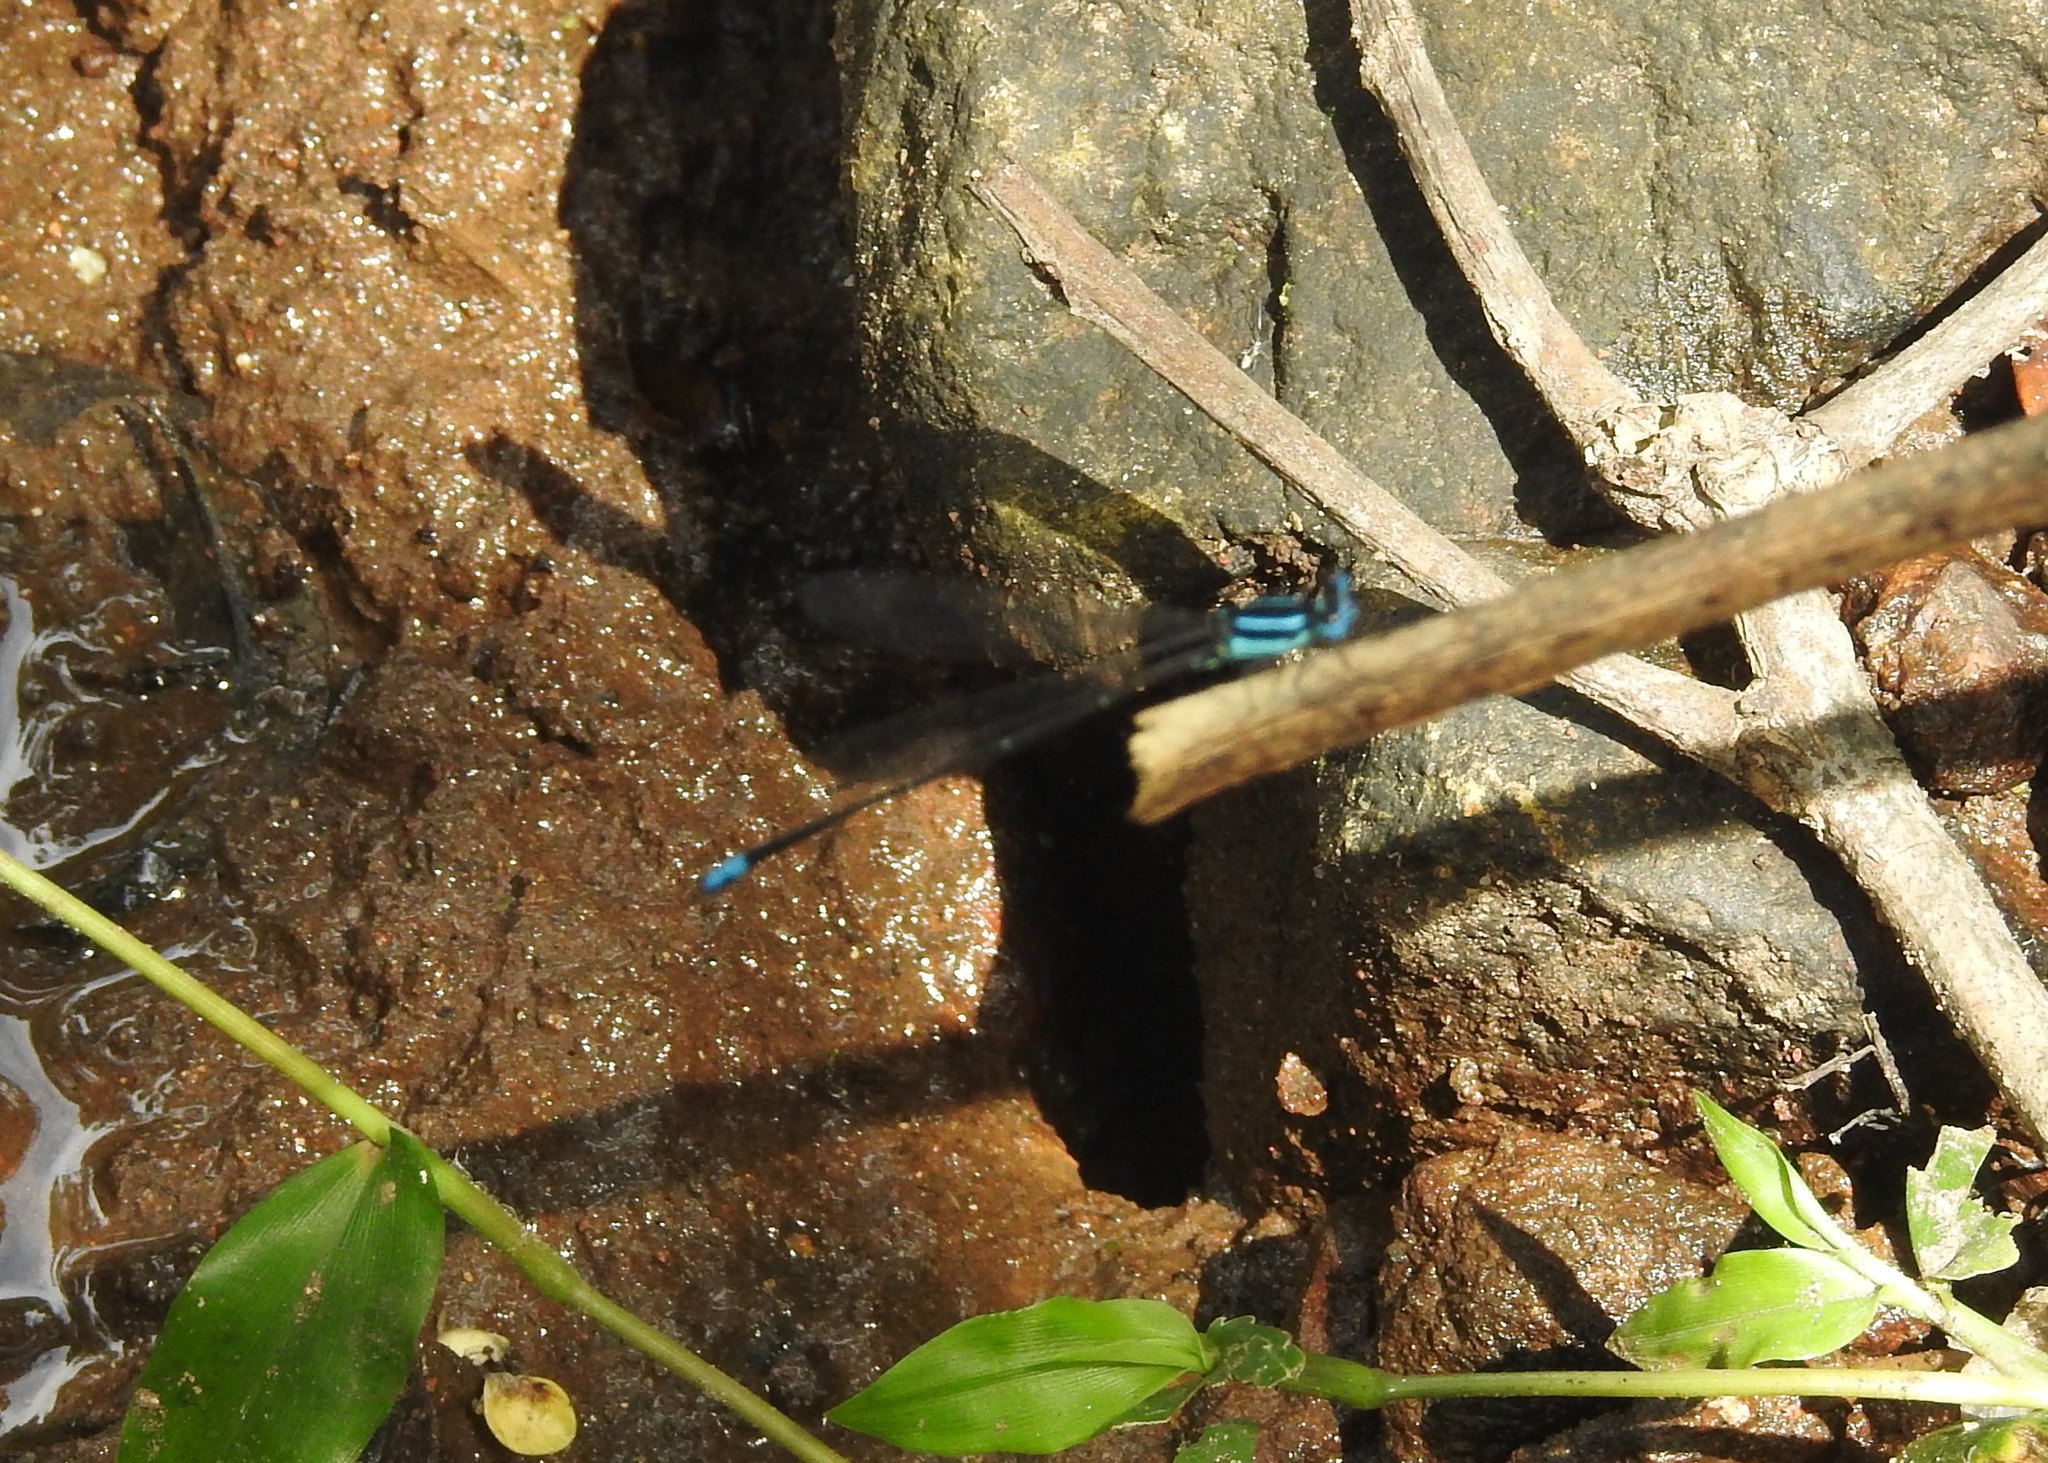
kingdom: Animalia
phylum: Arthropoda
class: Insecta
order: Odonata
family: Platycnemididae
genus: Caconeura
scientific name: Caconeura ramburi
